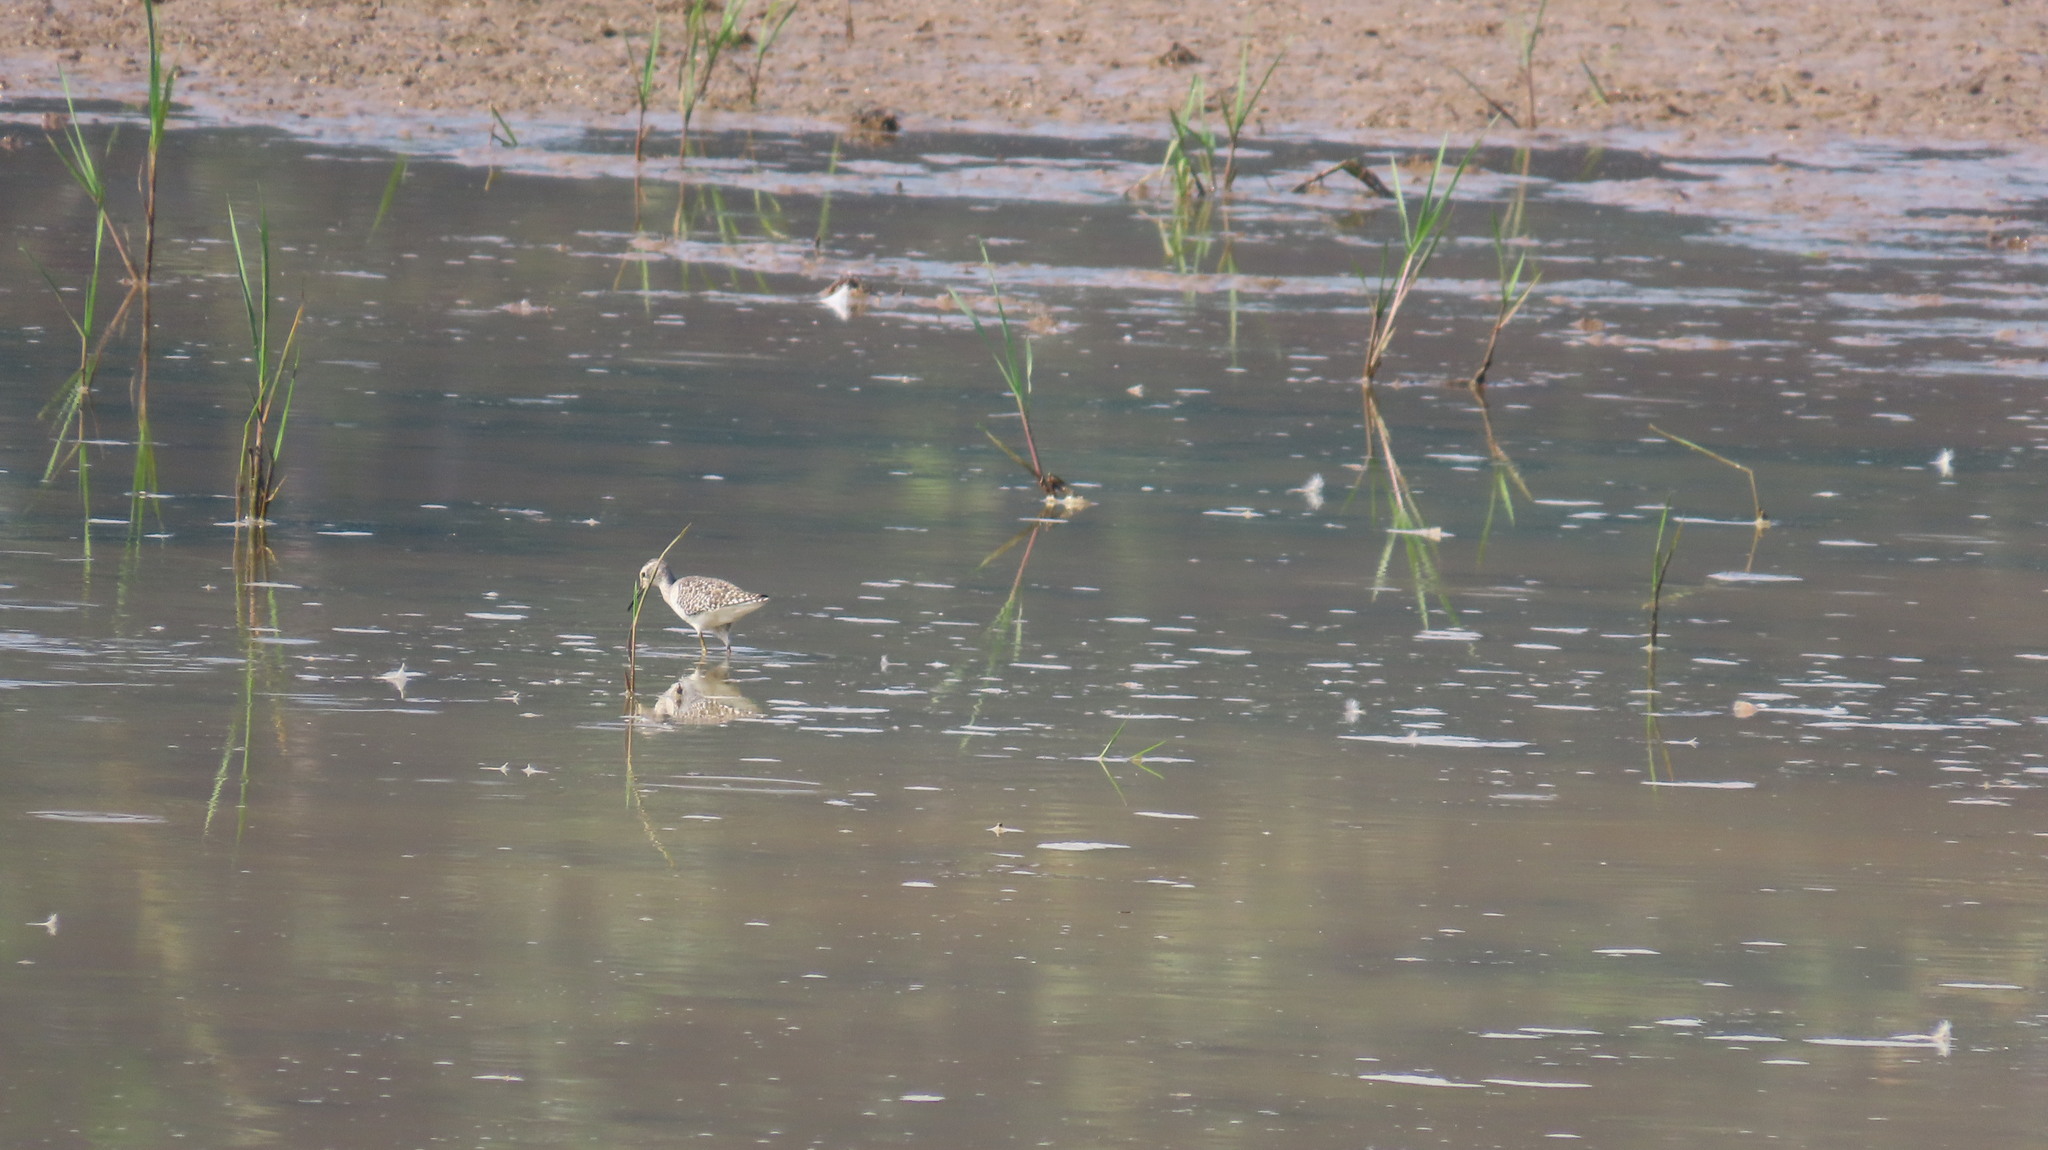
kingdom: Animalia
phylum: Chordata
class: Aves
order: Charadriiformes
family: Scolopacidae
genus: Tringa
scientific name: Tringa glareola
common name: Wood sandpiper
